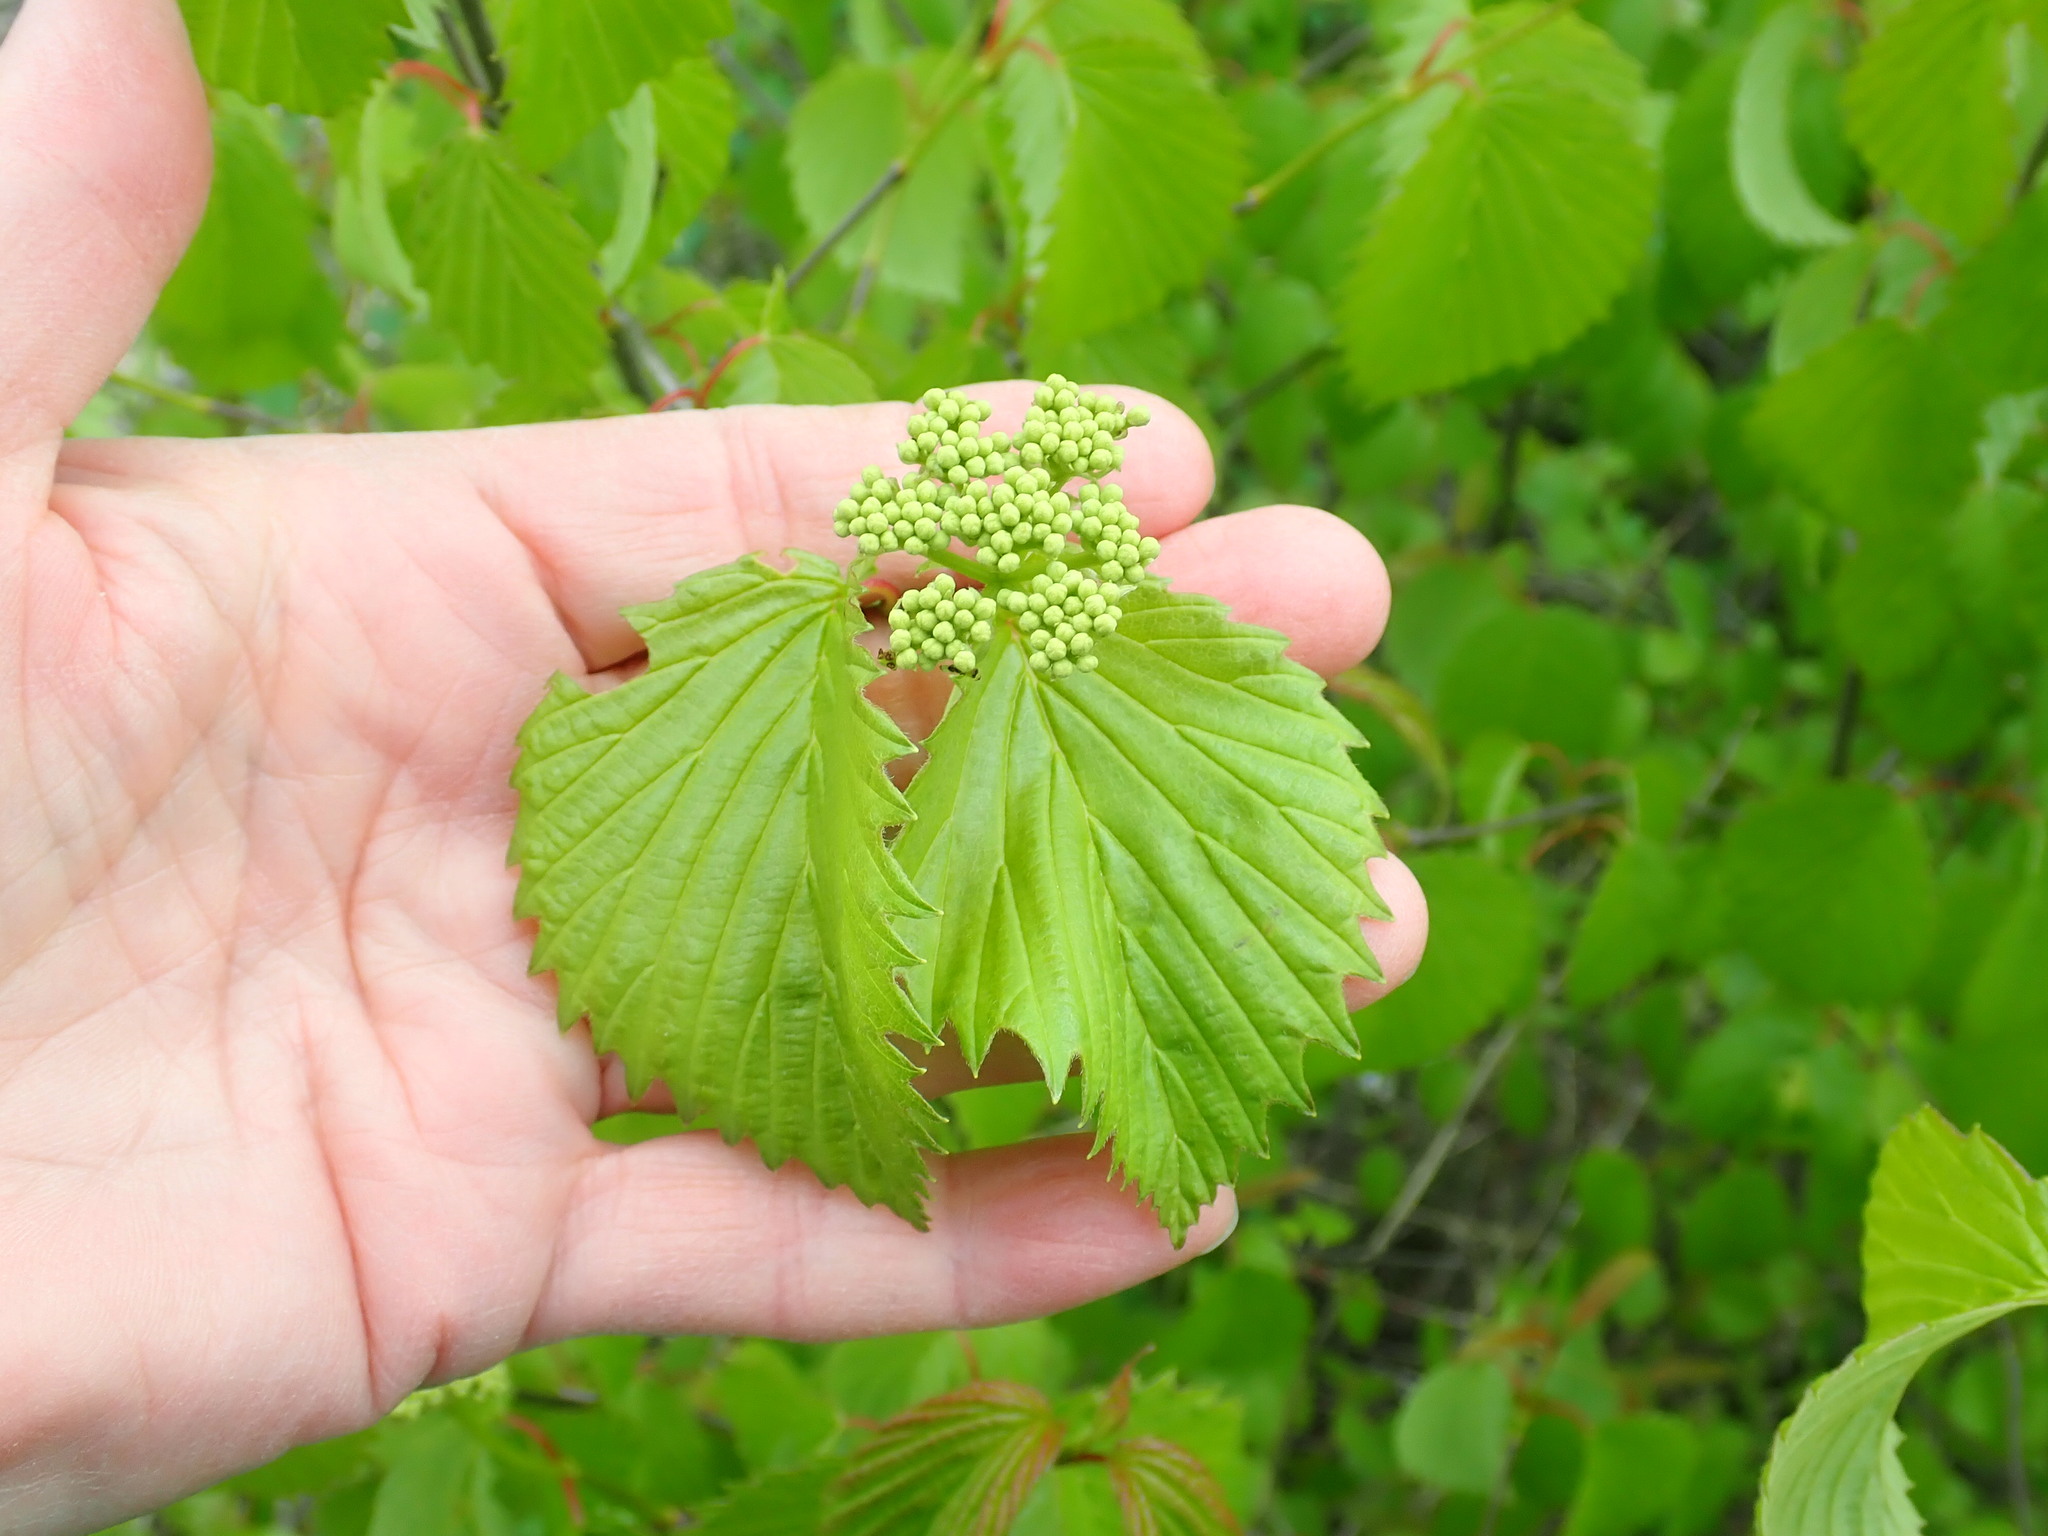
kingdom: Plantae
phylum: Tracheophyta
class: Magnoliopsida
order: Dipsacales
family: Viburnaceae
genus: Viburnum
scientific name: Viburnum dentatum
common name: Arrow-wood
